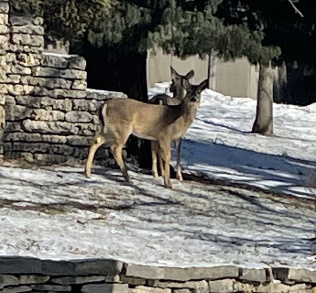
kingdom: Animalia
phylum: Chordata
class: Mammalia
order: Artiodactyla
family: Cervidae
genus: Odocoileus
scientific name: Odocoileus virginianus
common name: White-tailed deer
